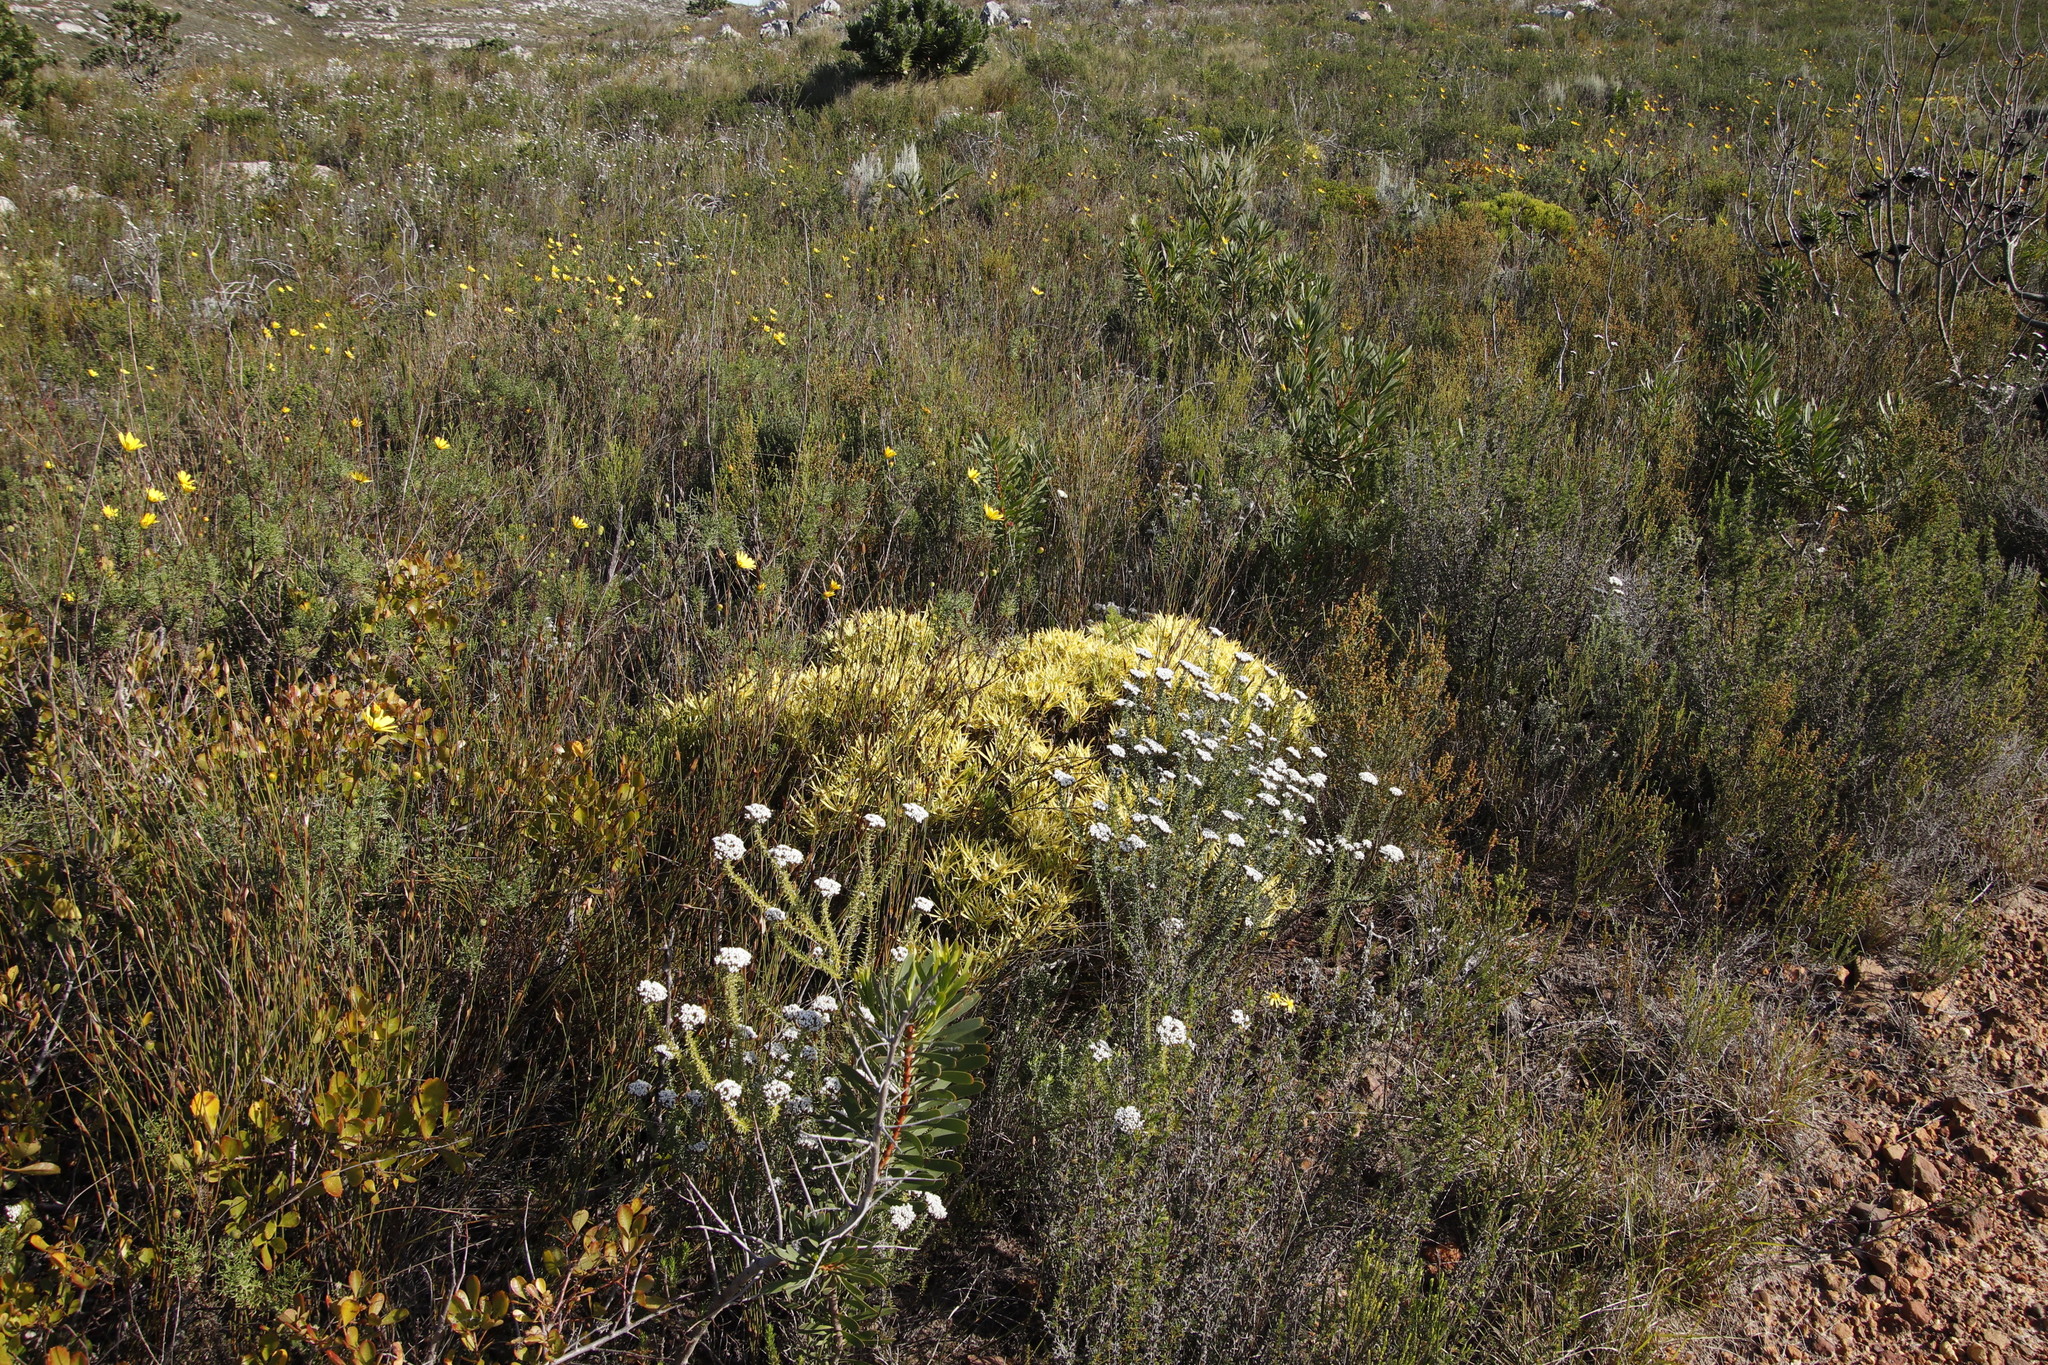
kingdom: Plantae
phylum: Tracheophyta
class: Magnoliopsida
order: Proteales
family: Proteaceae
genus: Leucadendron
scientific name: Leucadendron salignum
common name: Common sunshine conebush
